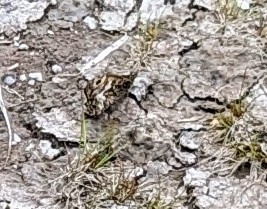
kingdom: Animalia
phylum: Arthropoda
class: Insecta
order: Lepidoptera
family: Nymphalidae
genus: Hipparchia
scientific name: Hipparchia semele
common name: Grayling
